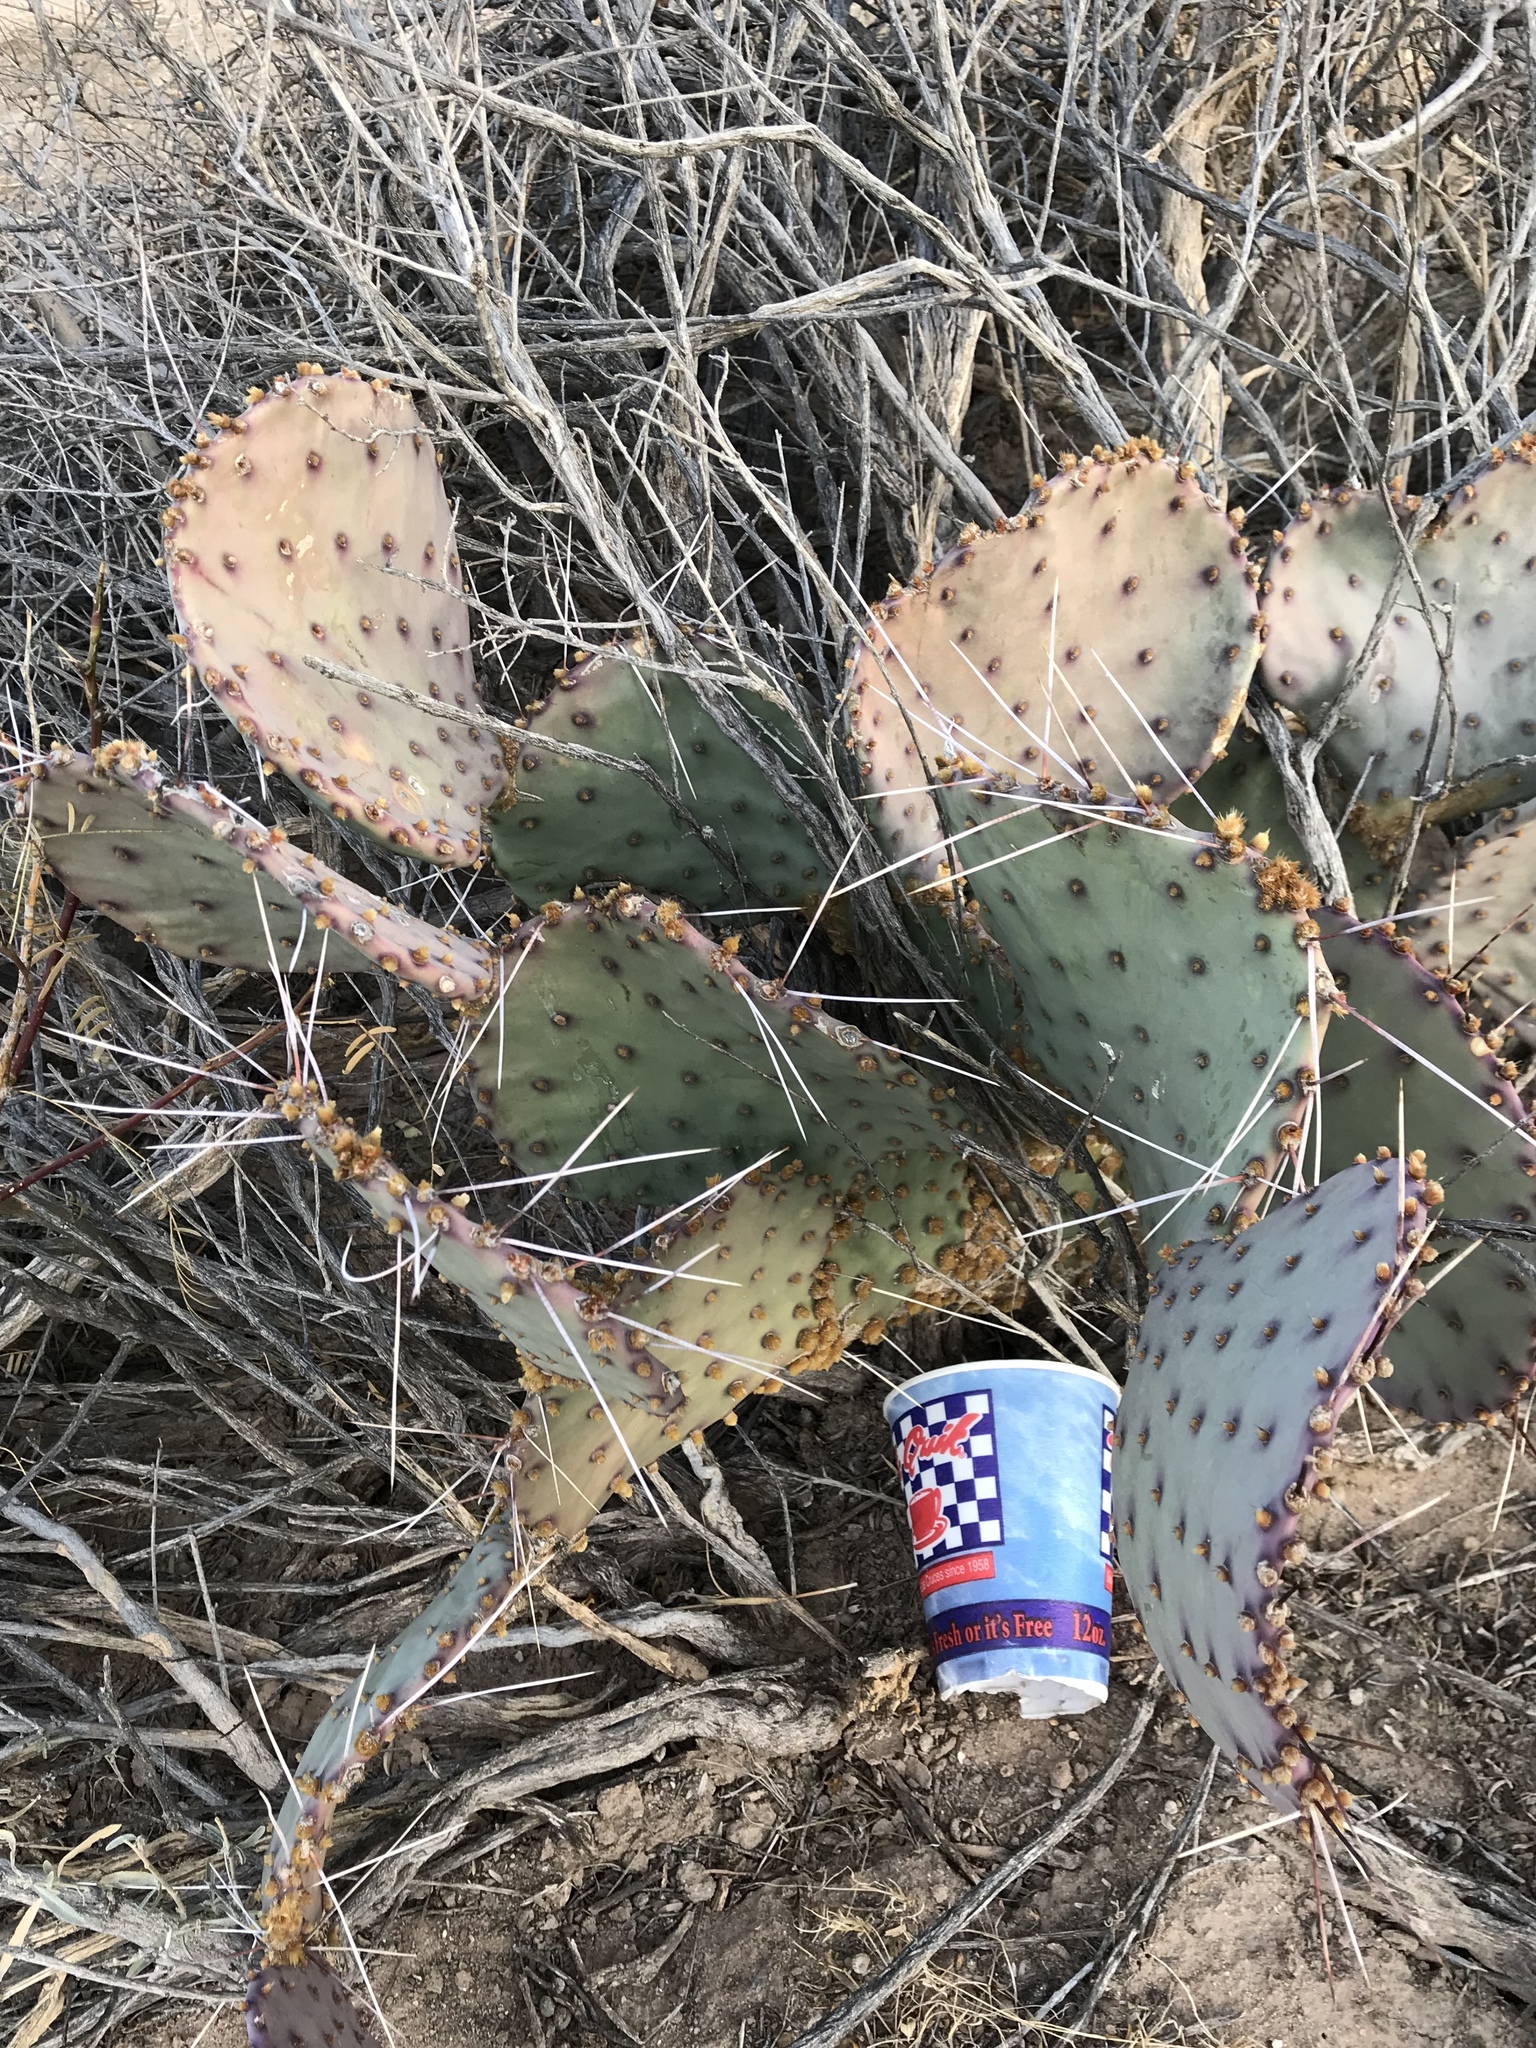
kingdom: Plantae
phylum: Tracheophyta
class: Magnoliopsida
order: Caryophyllales
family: Cactaceae
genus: Opuntia
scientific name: Opuntia macrocentra
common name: Purple prickly-pear
